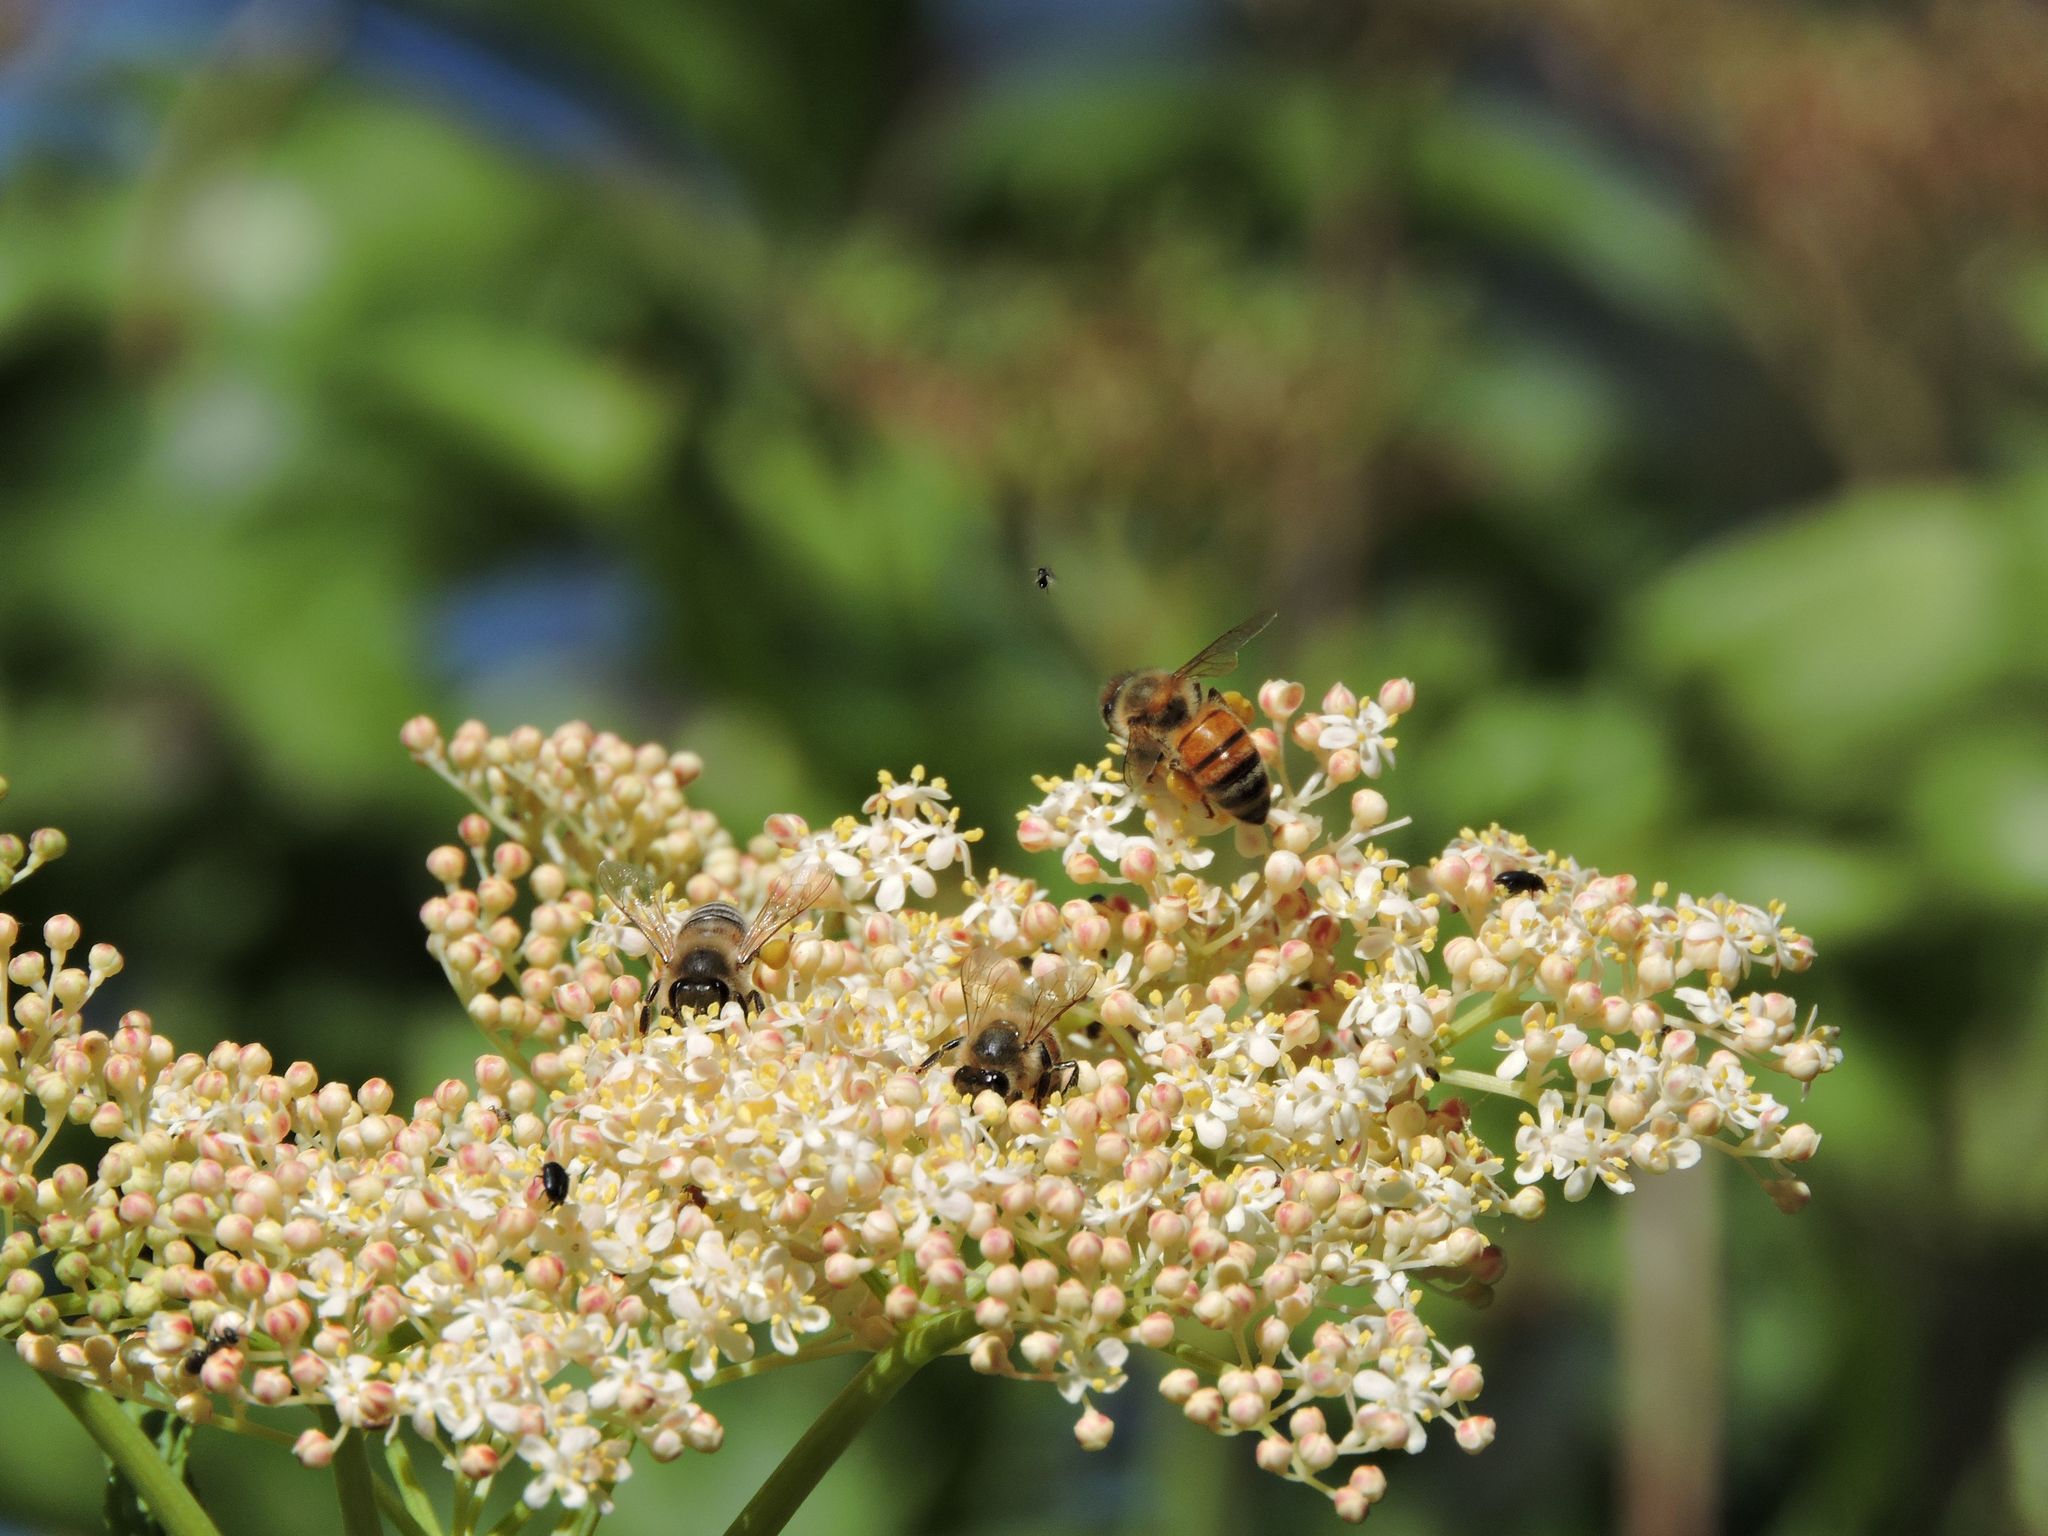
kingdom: Animalia
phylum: Arthropoda
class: Insecta
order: Hymenoptera
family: Apidae
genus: Apis
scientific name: Apis mellifera
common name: Honey bee
